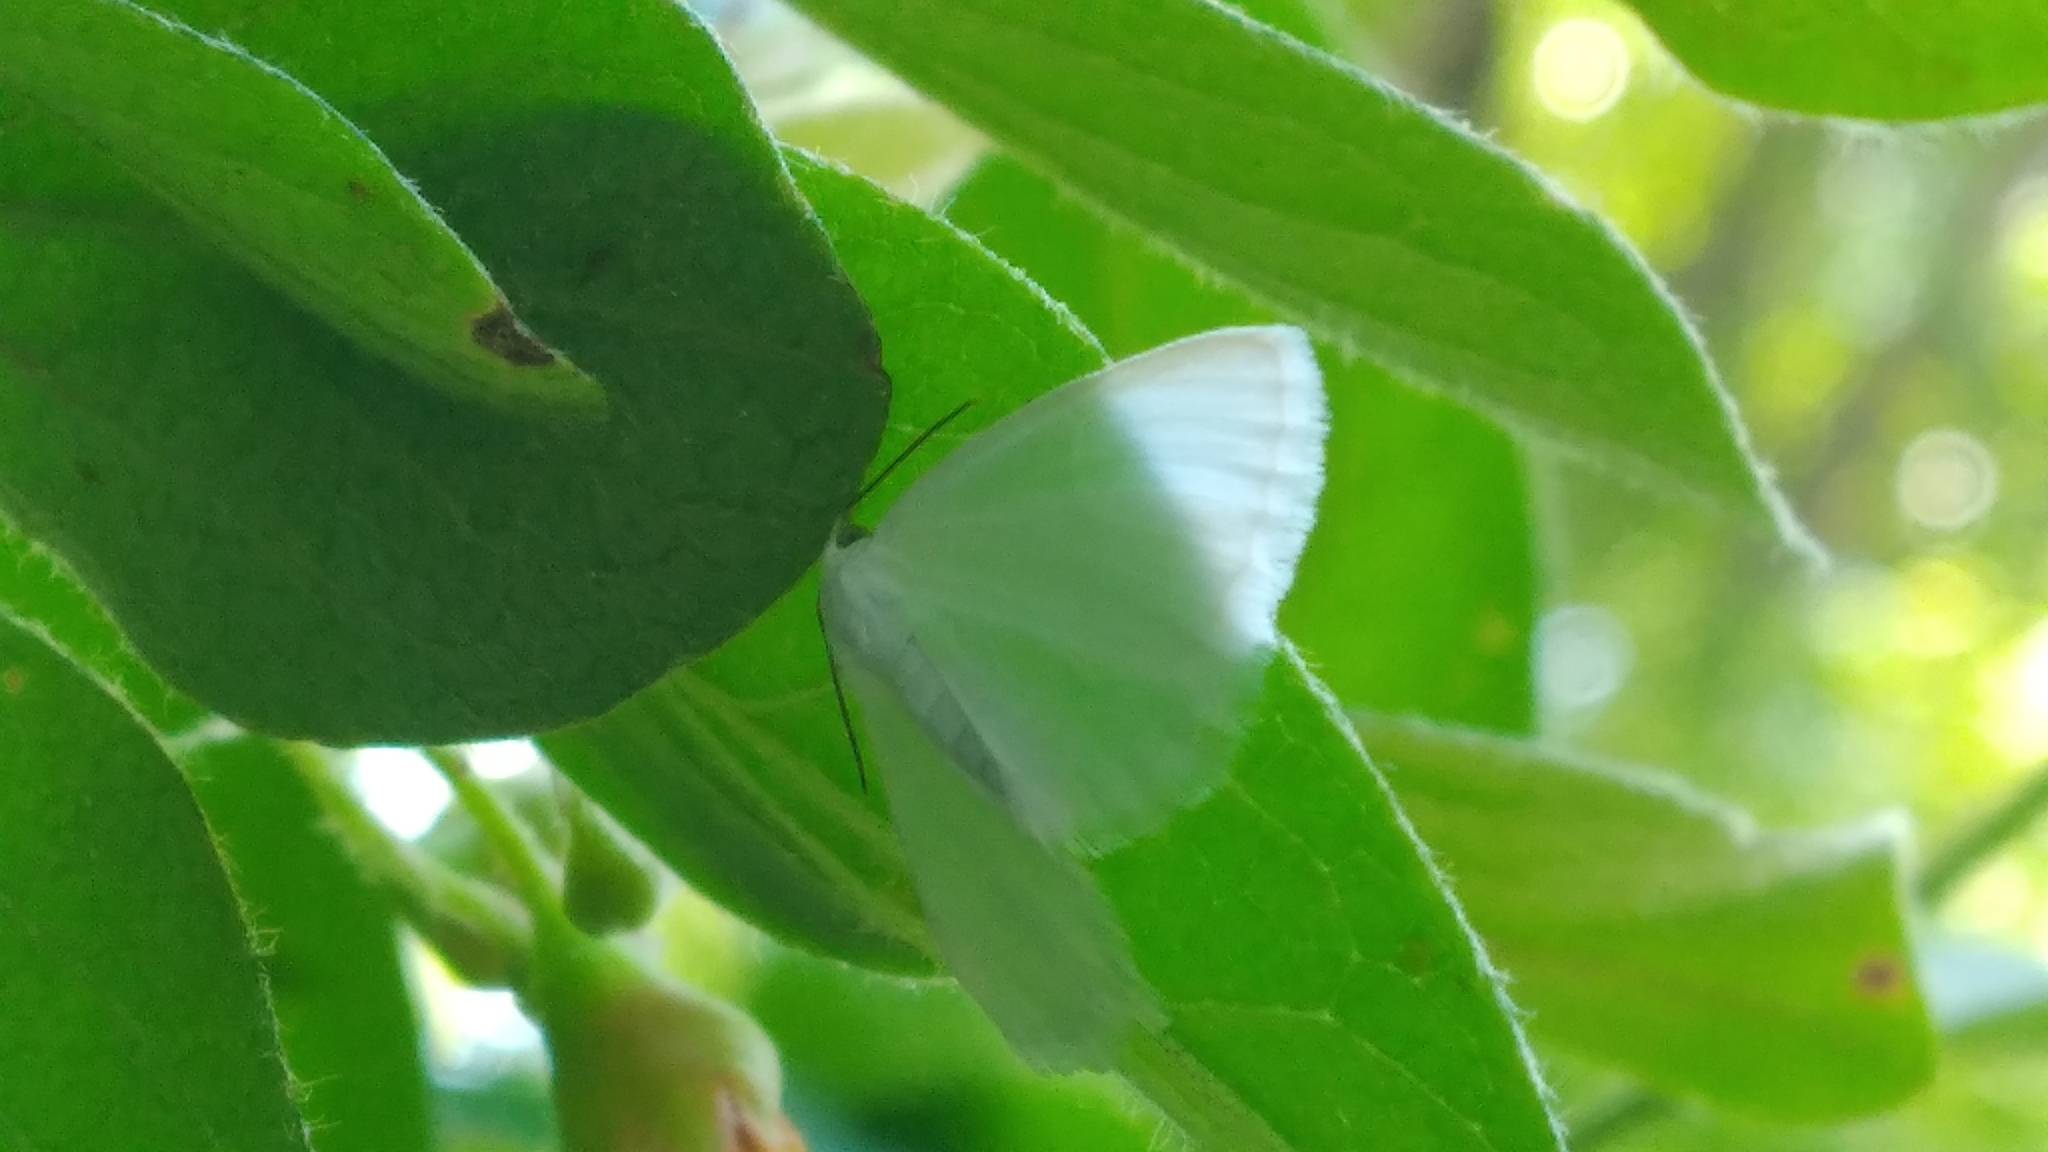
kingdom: Animalia
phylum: Arthropoda
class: Insecta
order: Lepidoptera
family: Geometridae
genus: Lomographa
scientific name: Lomographa vestaliata
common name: White spring moth
